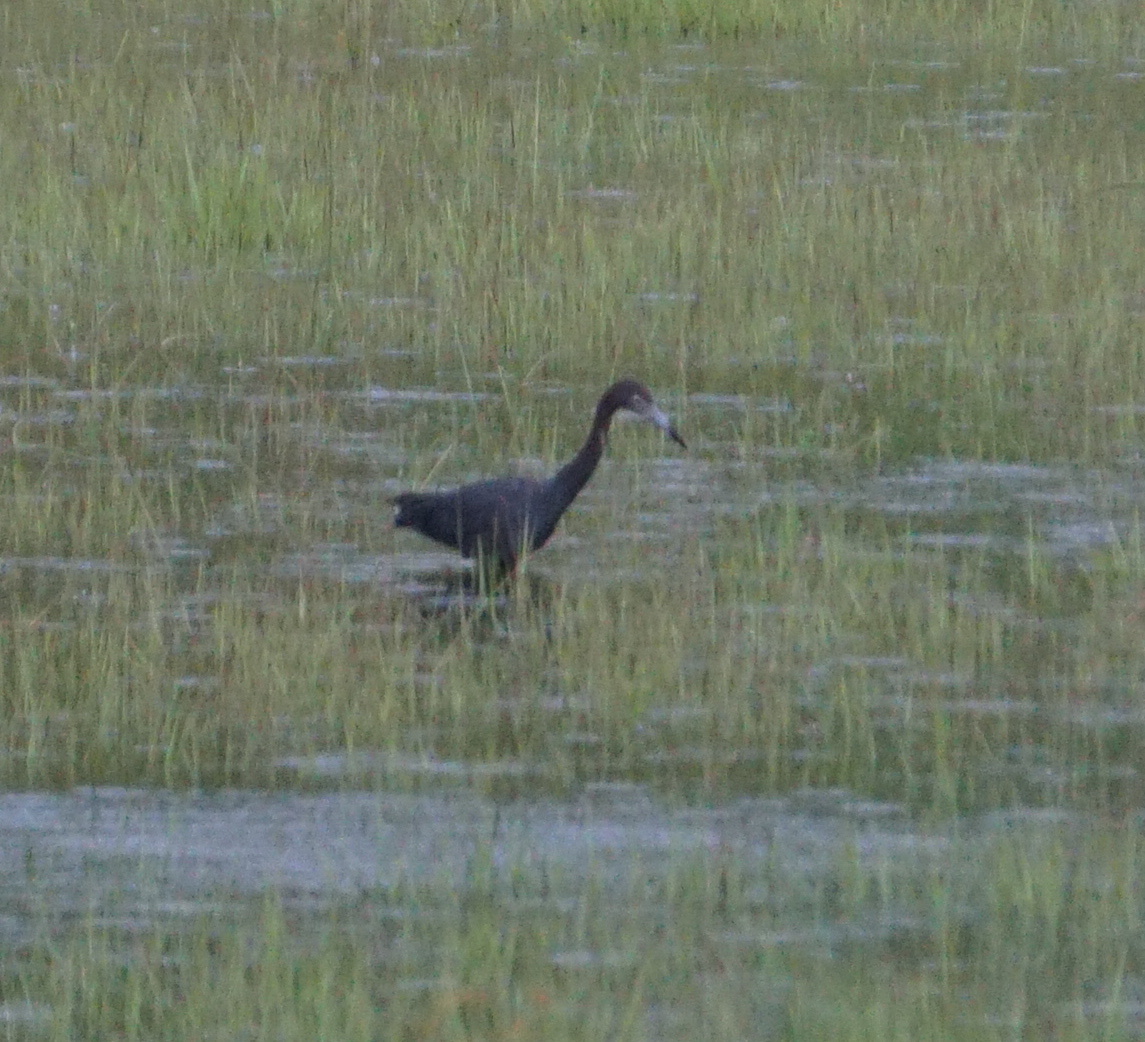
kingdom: Animalia
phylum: Chordata
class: Aves
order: Pelecaniformes
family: Ardeidae
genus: Egretta
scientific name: Egretta caerulea
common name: Little blue heron
